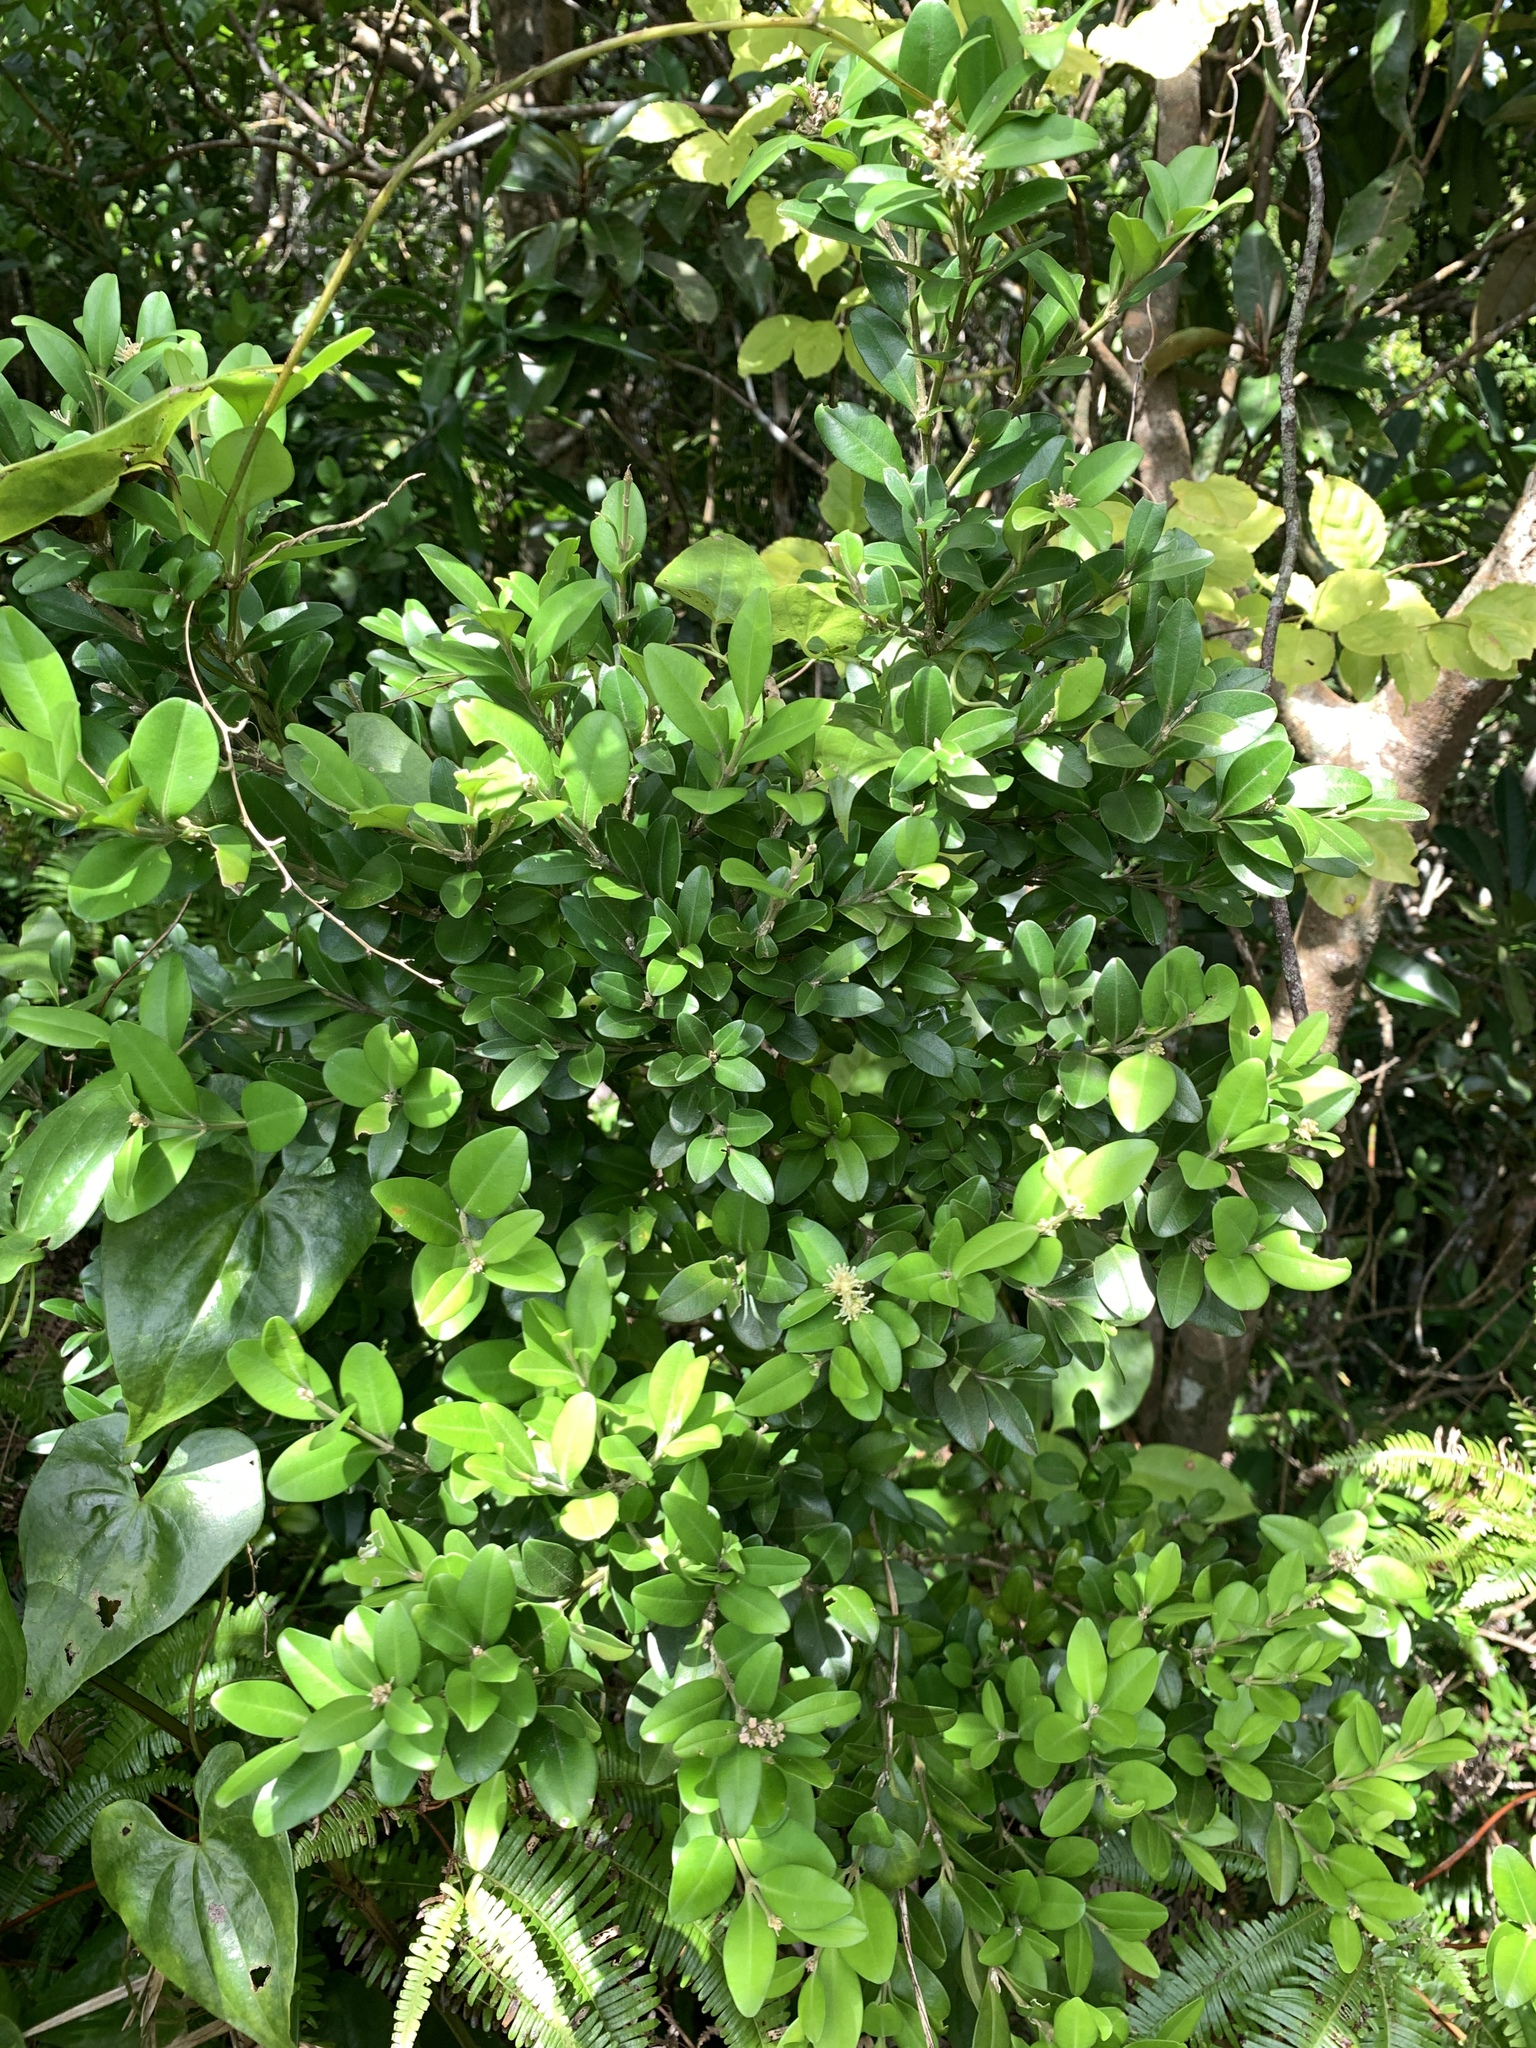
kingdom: Plantae
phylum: Tracheophyta
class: Magnoliopsida
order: Buxales
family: Buxaceae
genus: Buxus
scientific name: Buxus liukiuensis
